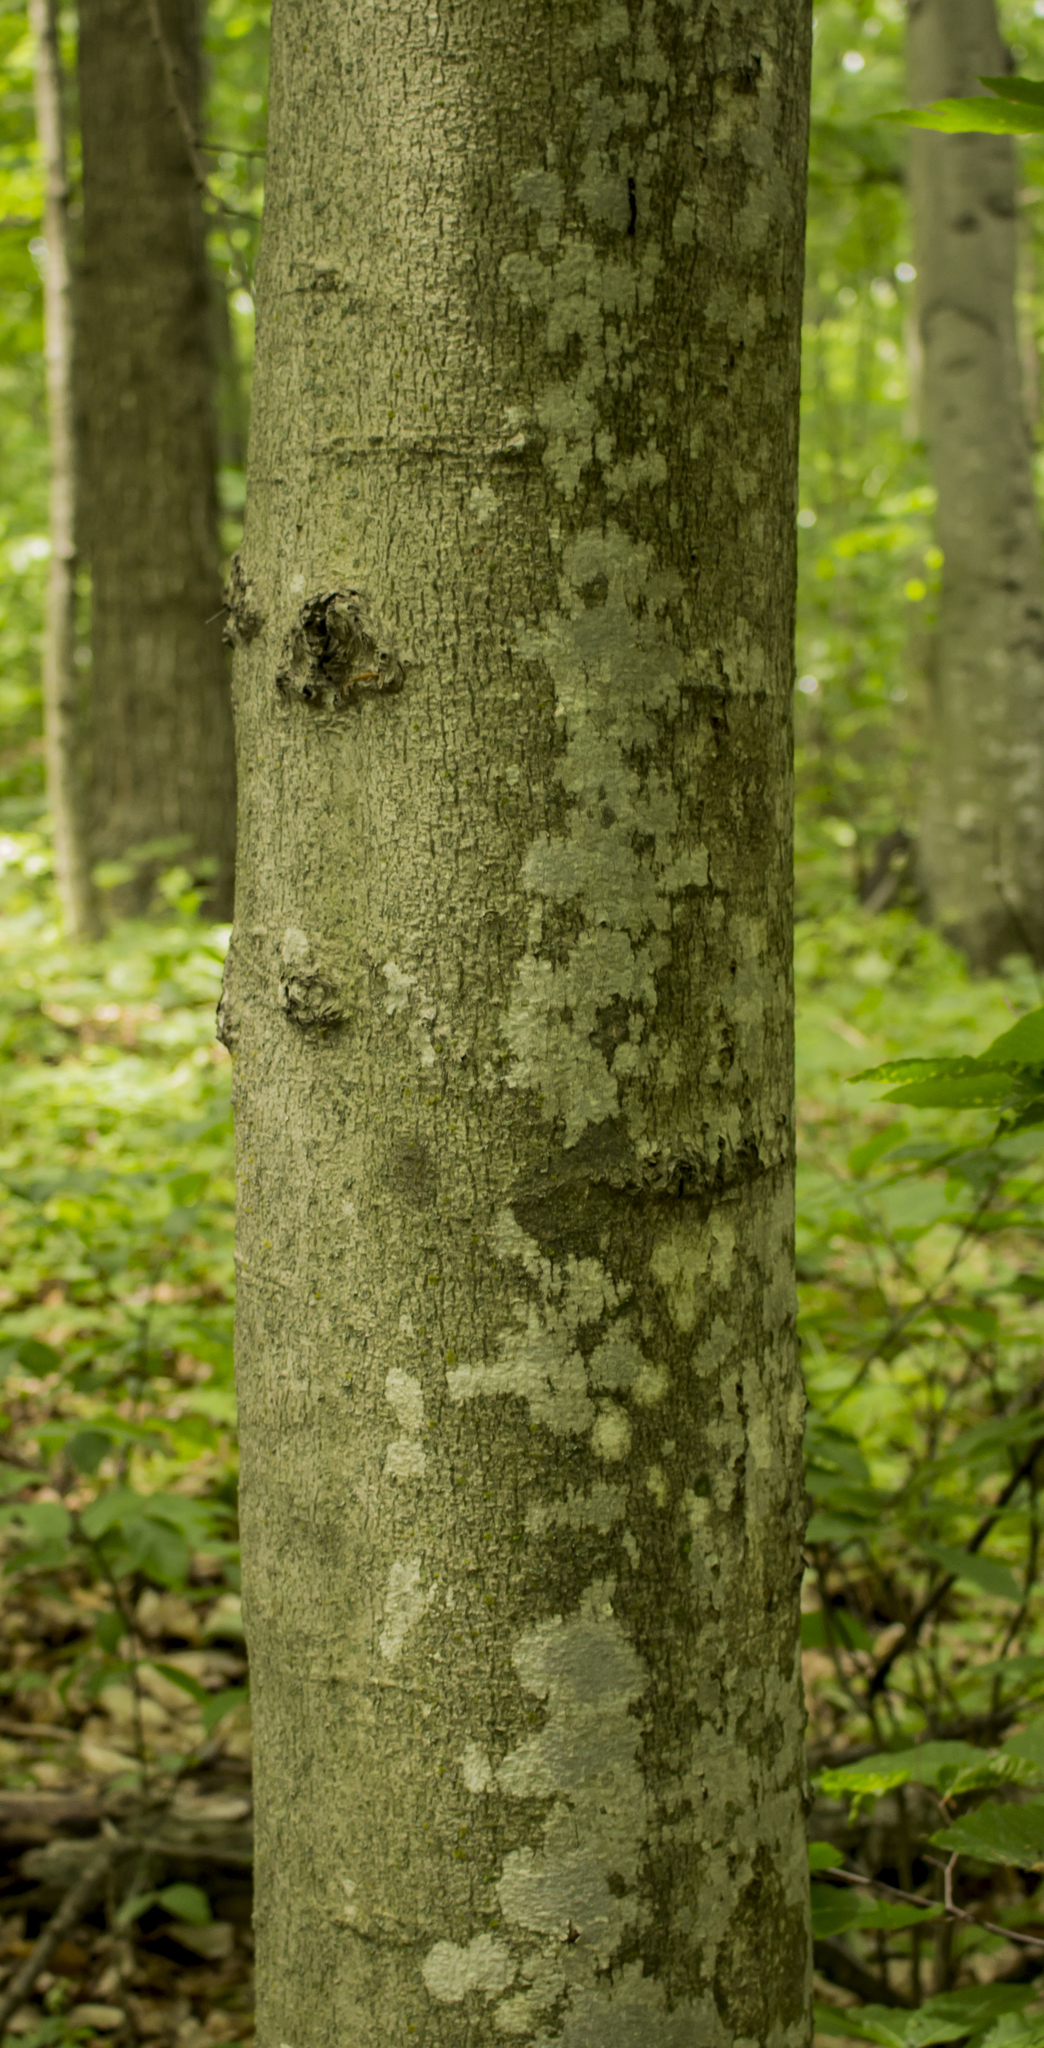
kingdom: Plantae
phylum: Tracheophyta
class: Magnoliopsida
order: Fagales
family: Fagaceae
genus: Fagus
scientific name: Fagus grandifolia
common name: American beech
